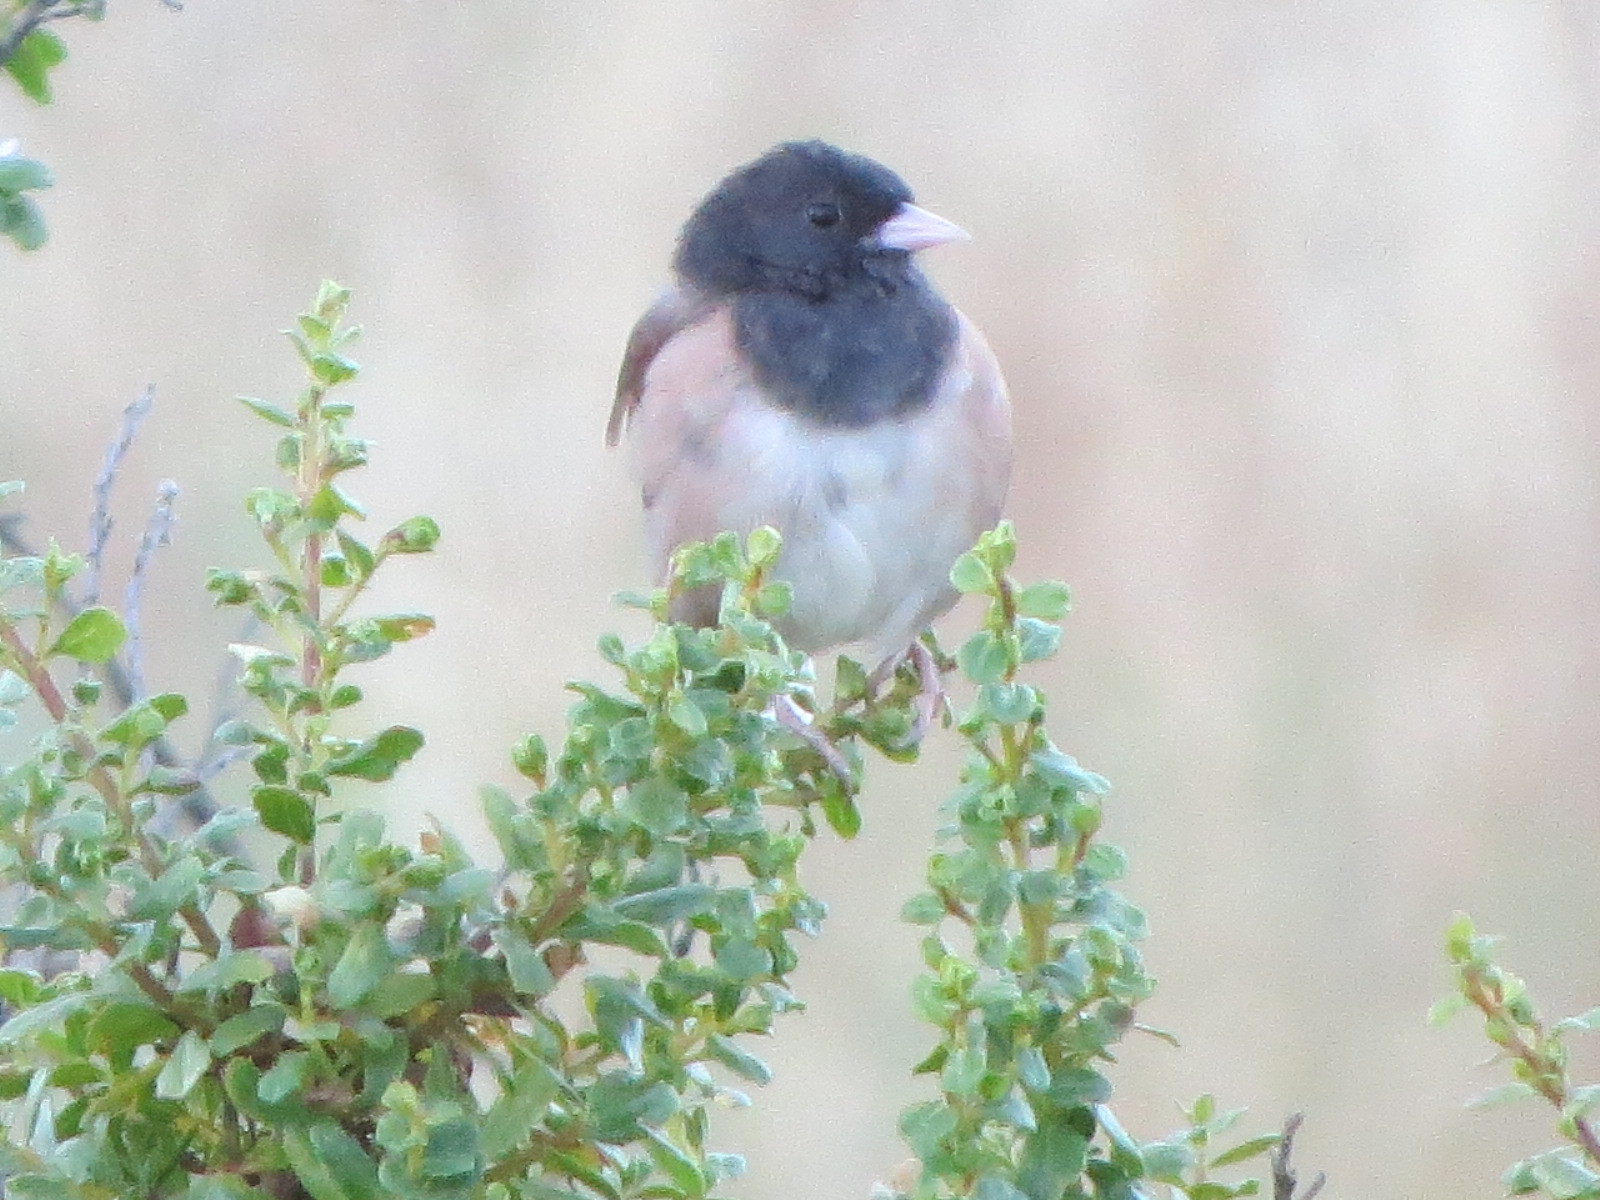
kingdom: Animalia
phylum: Chordata
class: Aves
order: Passeriformes
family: Passerellidae
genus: Junco
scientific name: Junco hyemalis
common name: Dark-eyed junco
